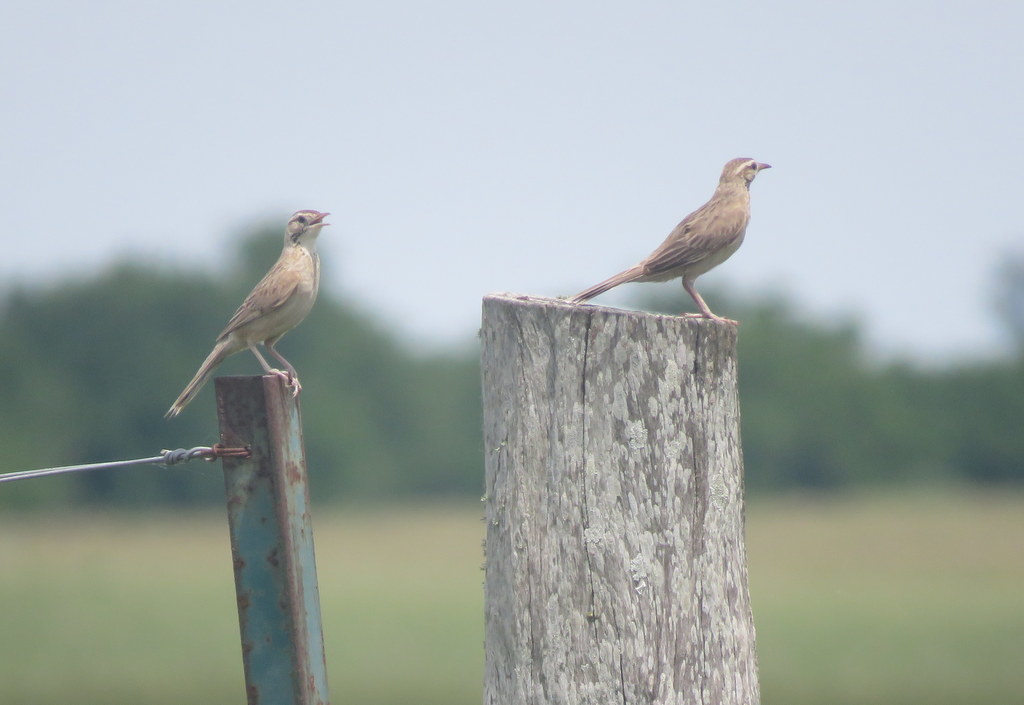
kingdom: Animalia
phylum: Chordata
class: Aves
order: Passeriformes
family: Furnariidae
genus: Anumbius
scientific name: Anumbius annumbi
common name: Firewood-gatherer
